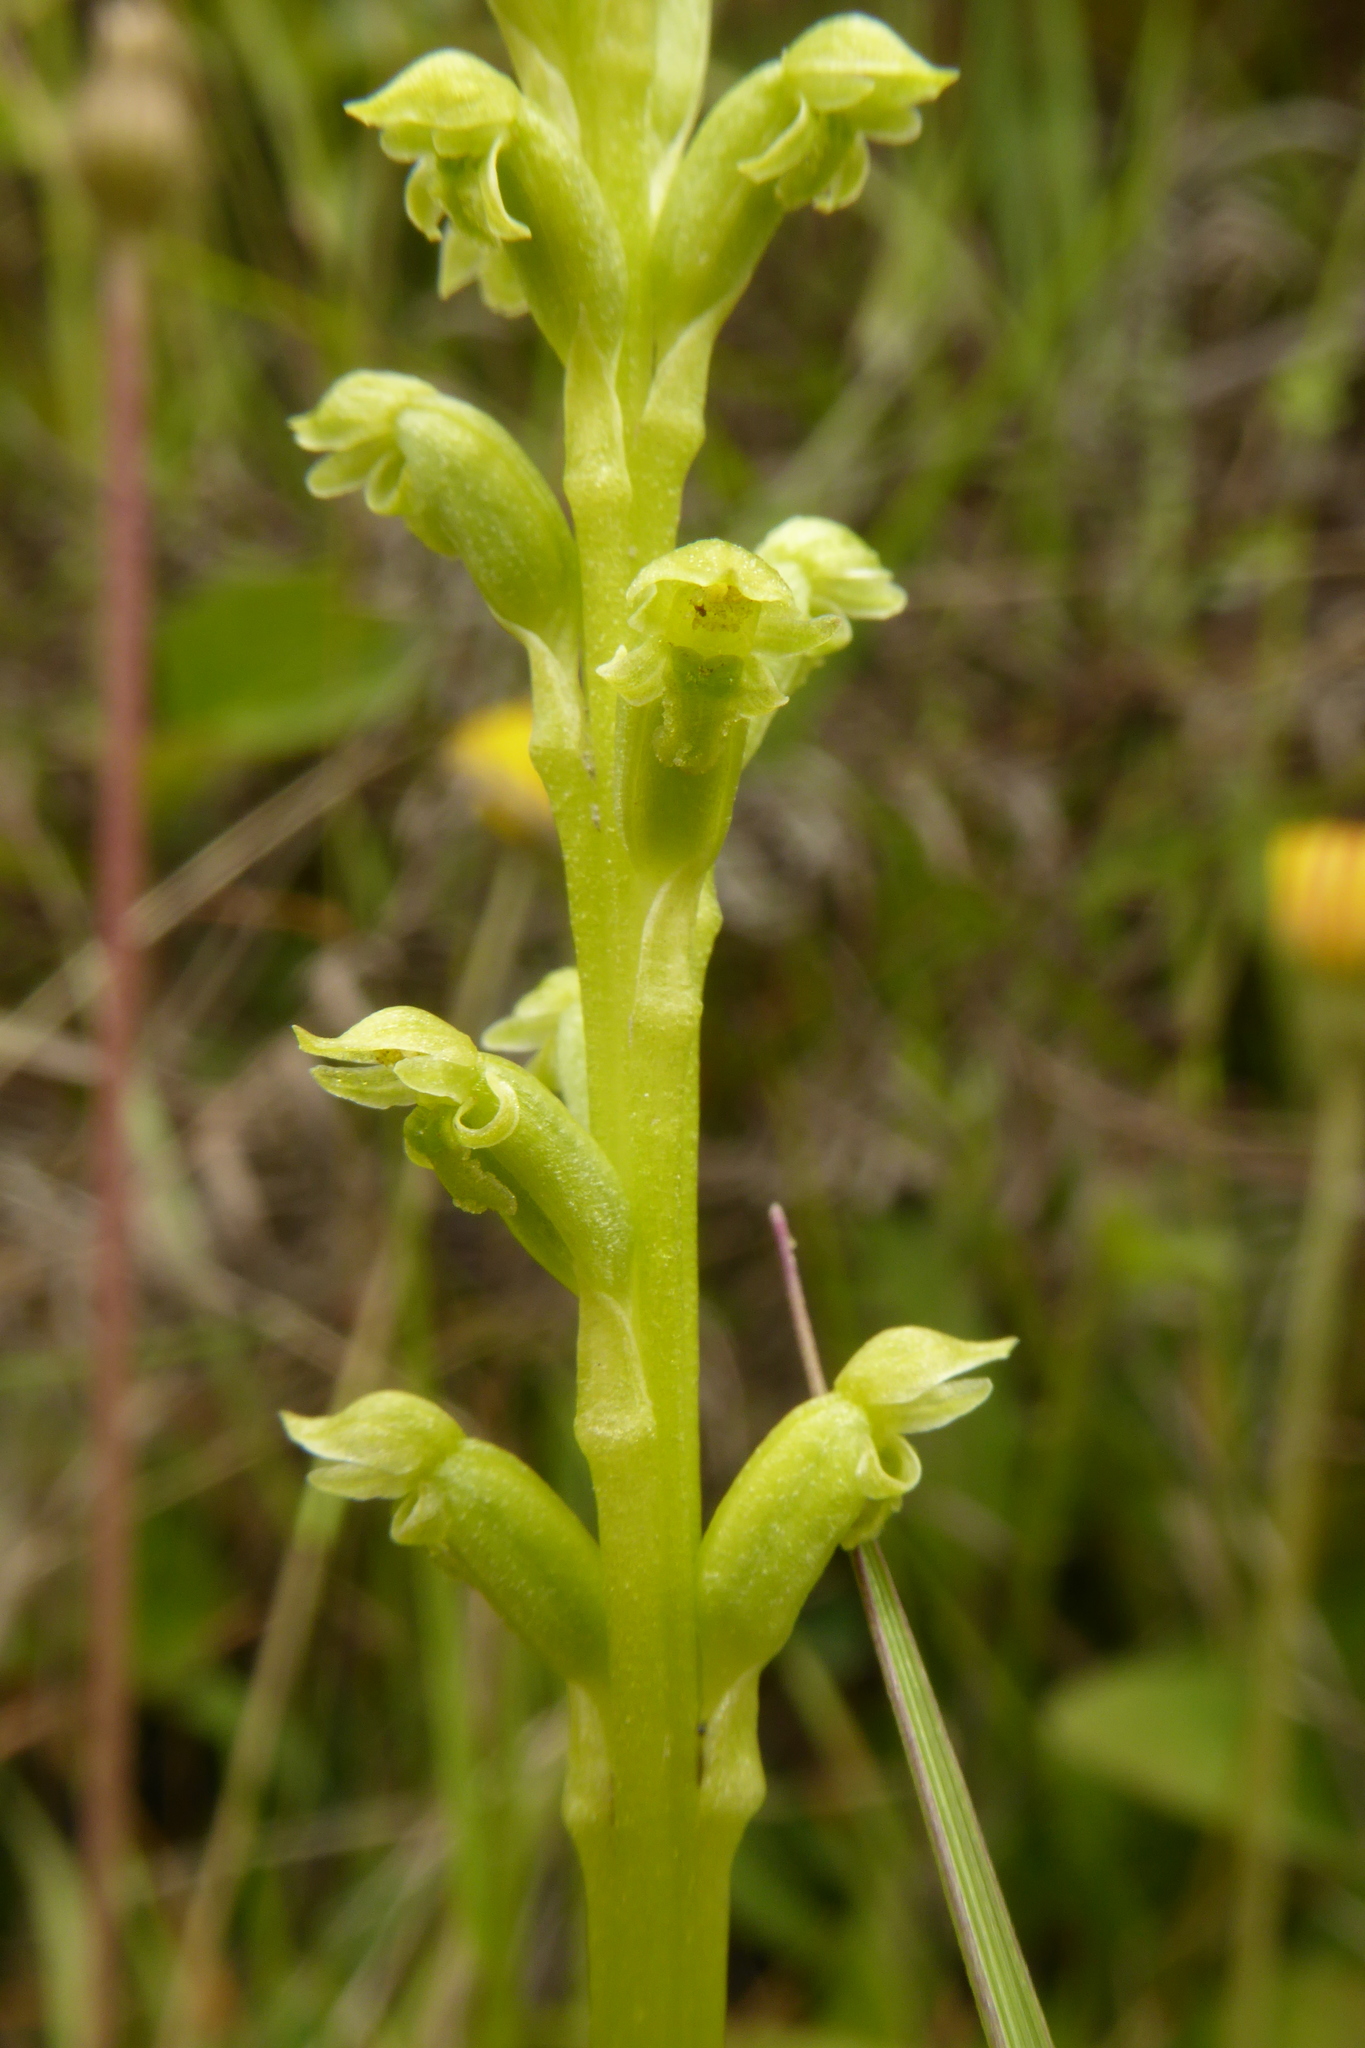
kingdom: Plantae
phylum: Tracheophyta
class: Liliopsida
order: Asparagales
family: Orchidaceae
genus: Microtis
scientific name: Microtis unifolia
